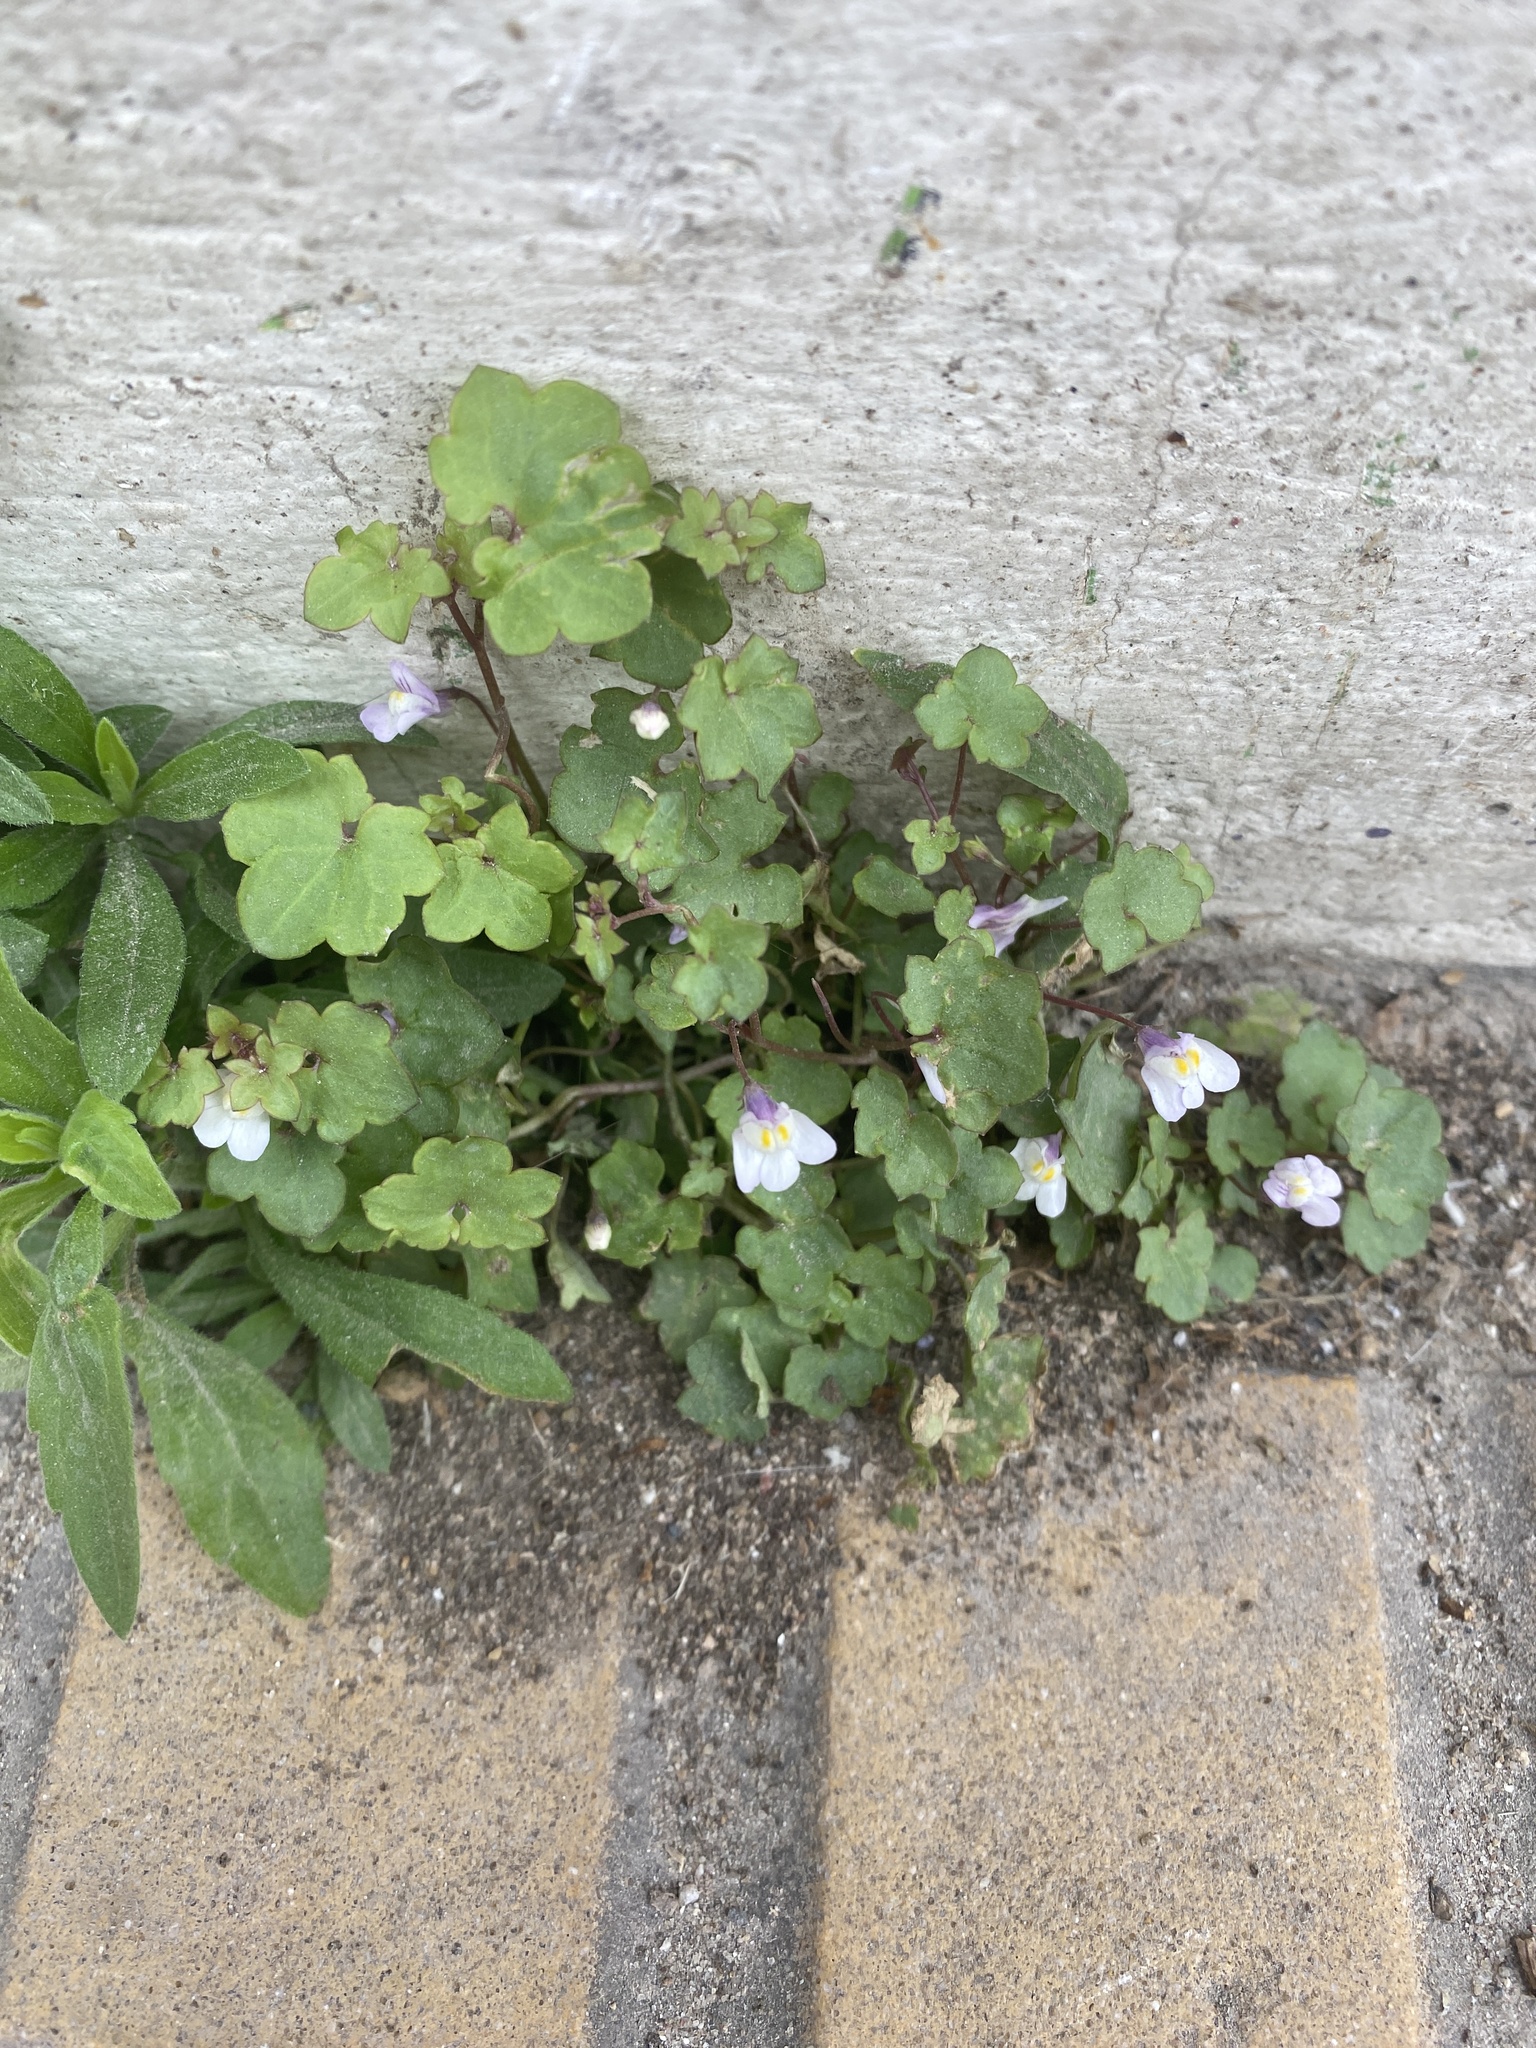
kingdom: Plantae
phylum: Tracheophyta
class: Magnoliopsida
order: Lamiales
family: Plantaginaceae
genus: Cymbalaria
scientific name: Cymbalaria muralis
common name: Ivy-leaved toadflax
